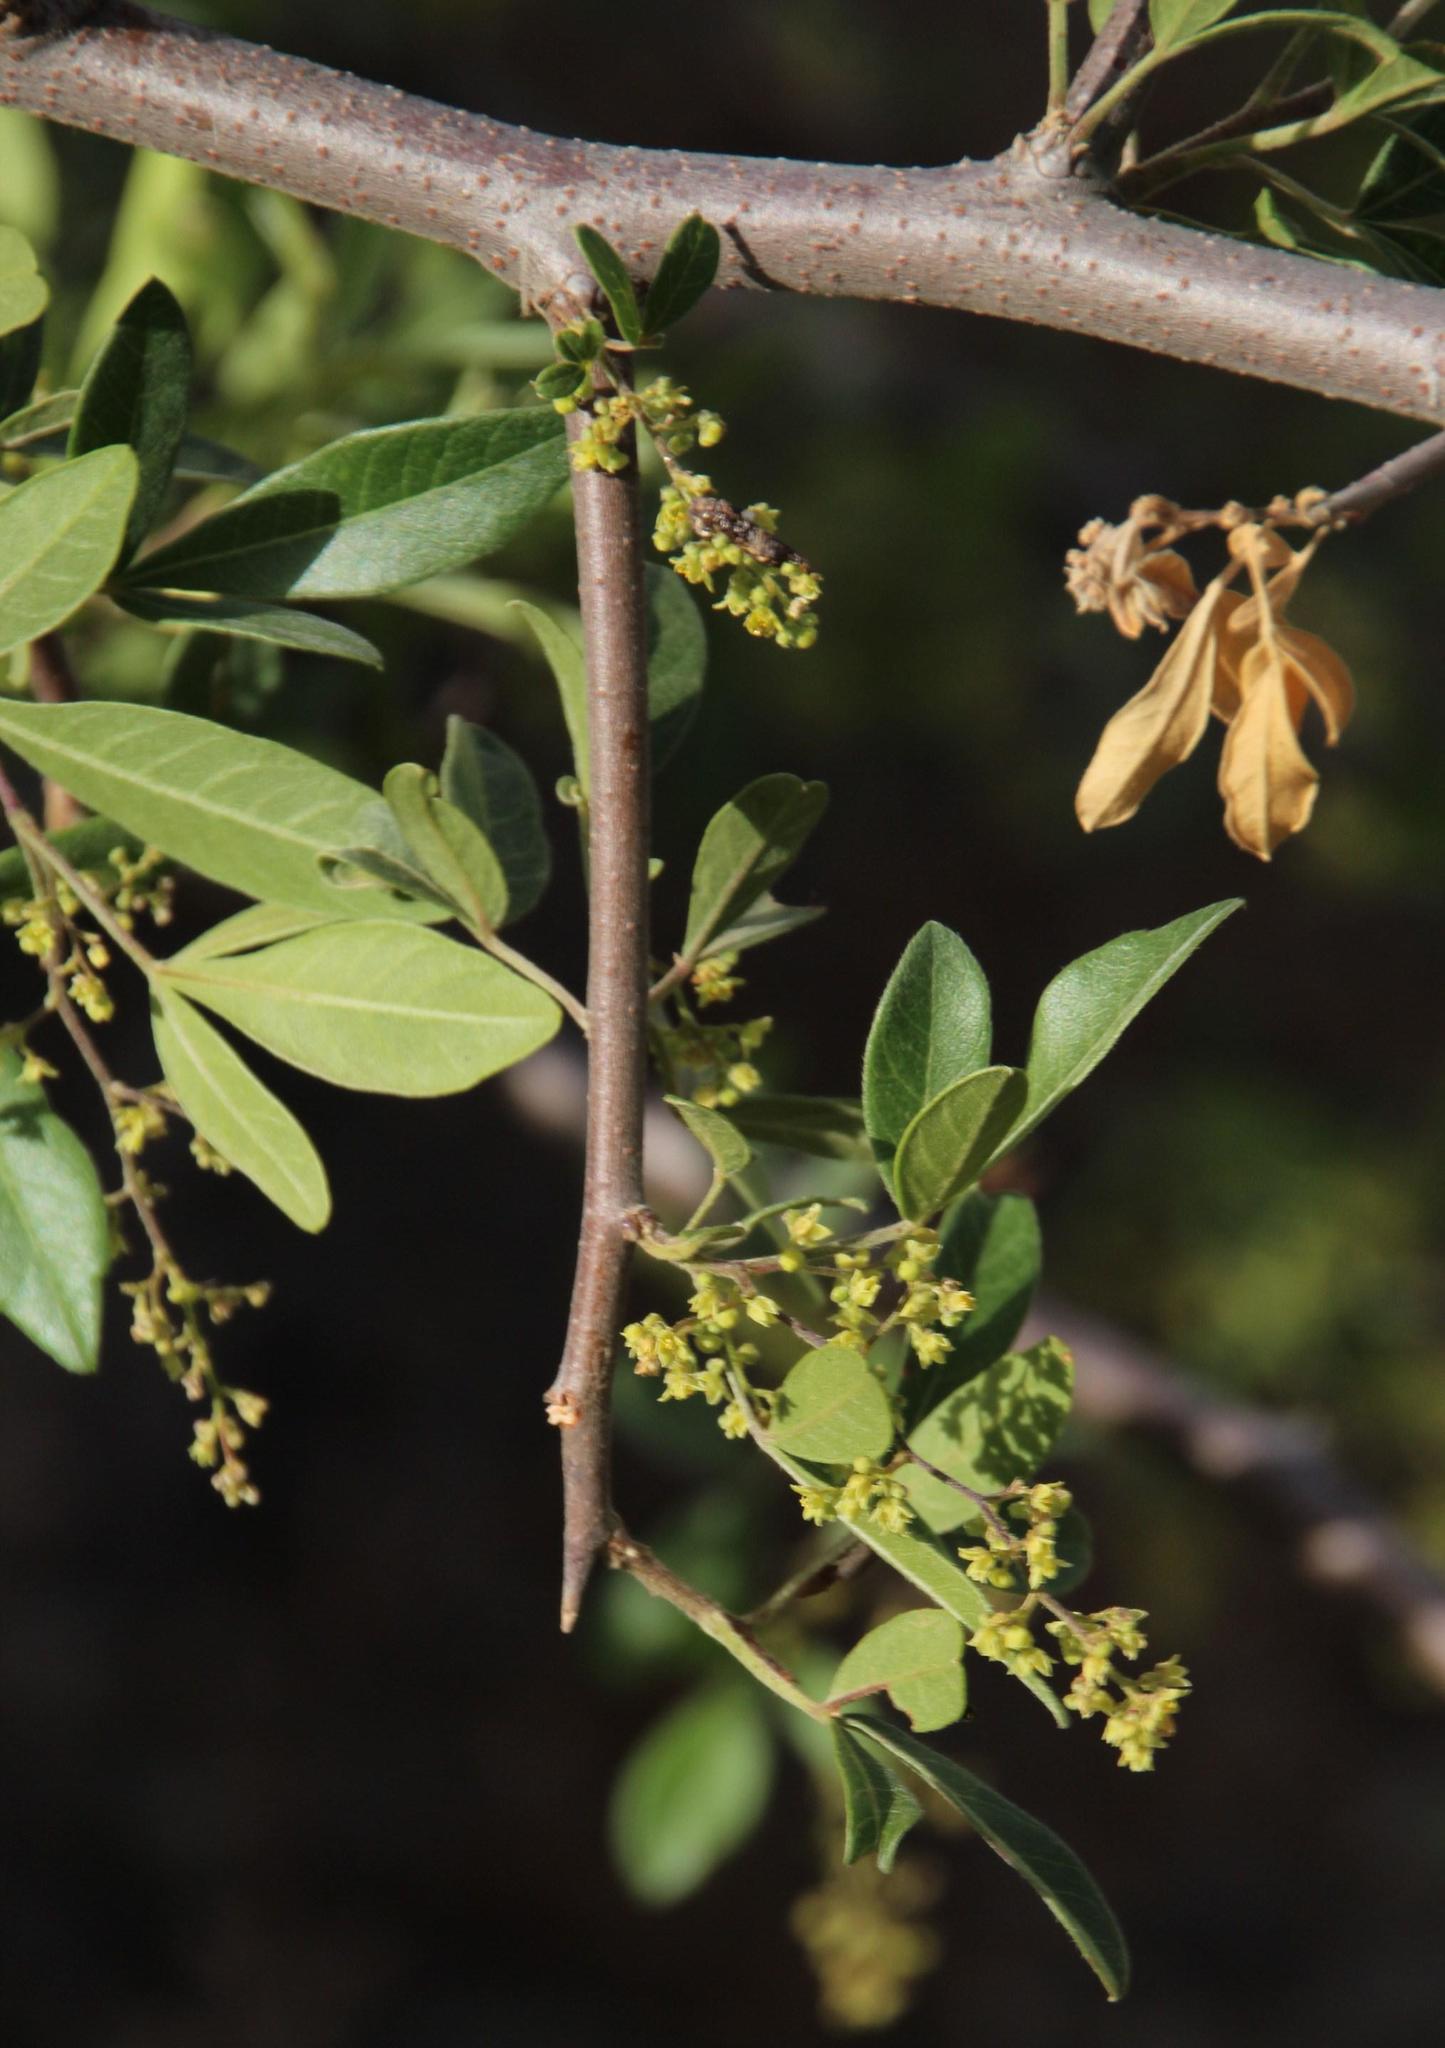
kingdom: Plantae
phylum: Tracheophyta
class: Magnoliopsida
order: Sapindales
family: Anacardiaceae
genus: Searsia
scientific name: Searsia pyroides
